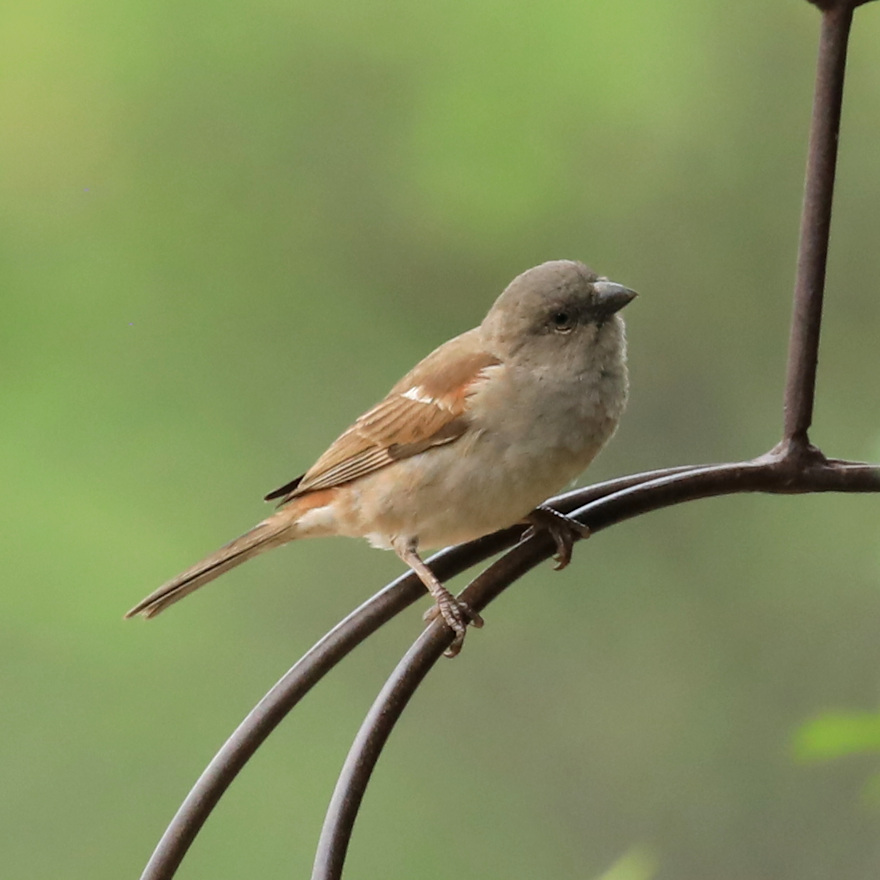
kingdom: Animalia
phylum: Chordata
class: Aves
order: Passeriformes
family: Passeridae
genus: Passer
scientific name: Passer diffusus
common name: Southern grey-headed sparrow
